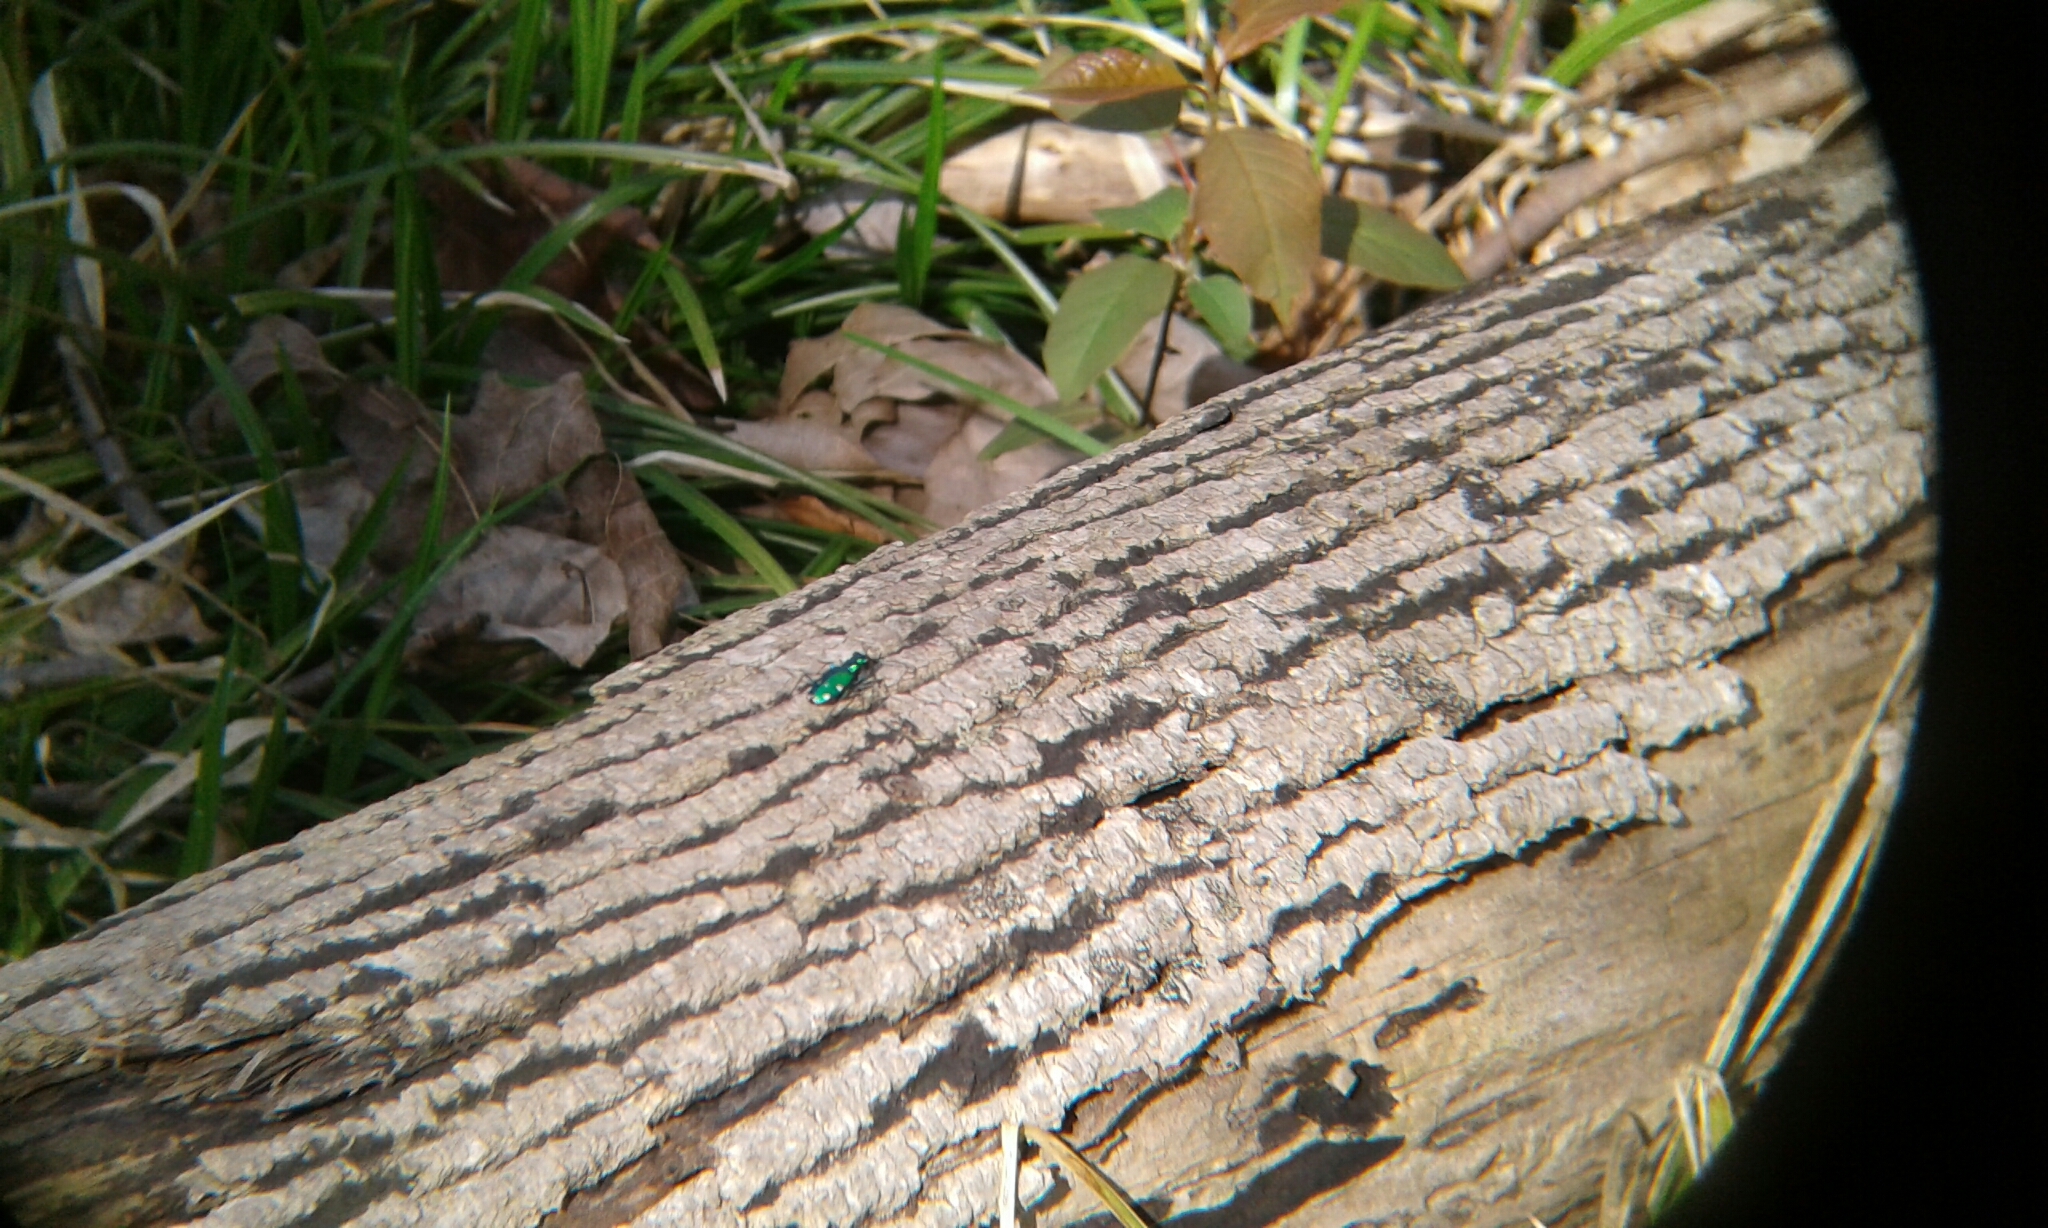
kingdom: Animalia
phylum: Arthropoda
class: Insecta
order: Coleoptera
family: Carabidae
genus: Cicindela
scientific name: Cicindela sexguttata
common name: Six-spotted tiger beetle
